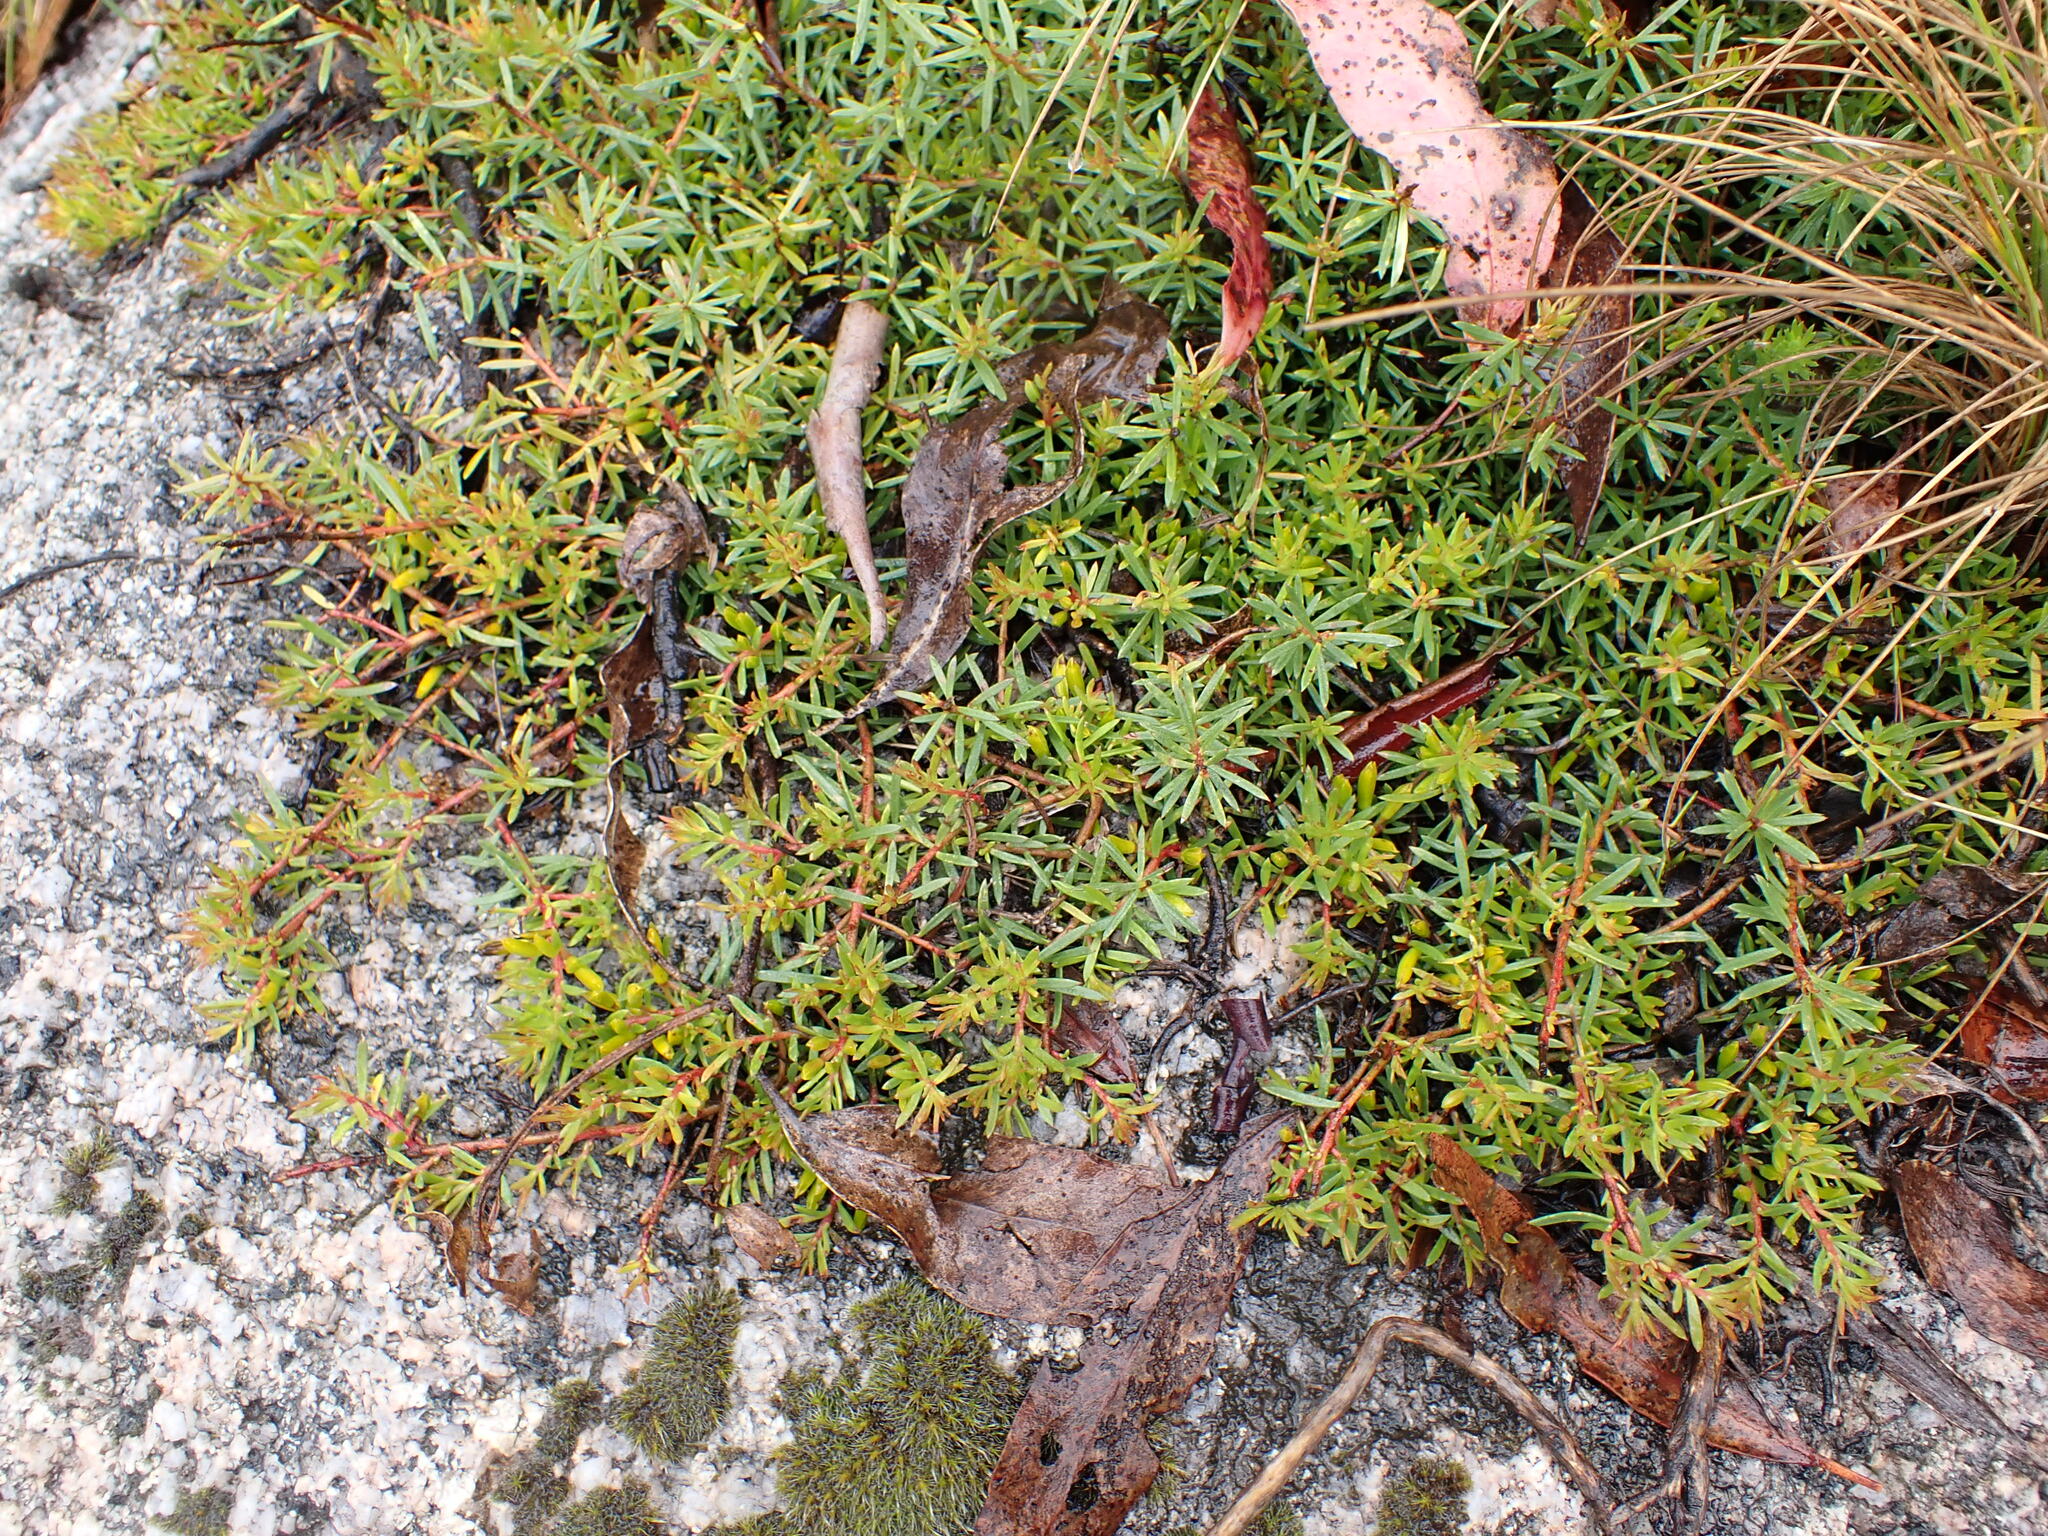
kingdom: Plantae
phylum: Tracheophyta
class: Magnoliopsida
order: Proteales
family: Proteaceae
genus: Persoonia
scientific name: Persoonia chamaepeuce
